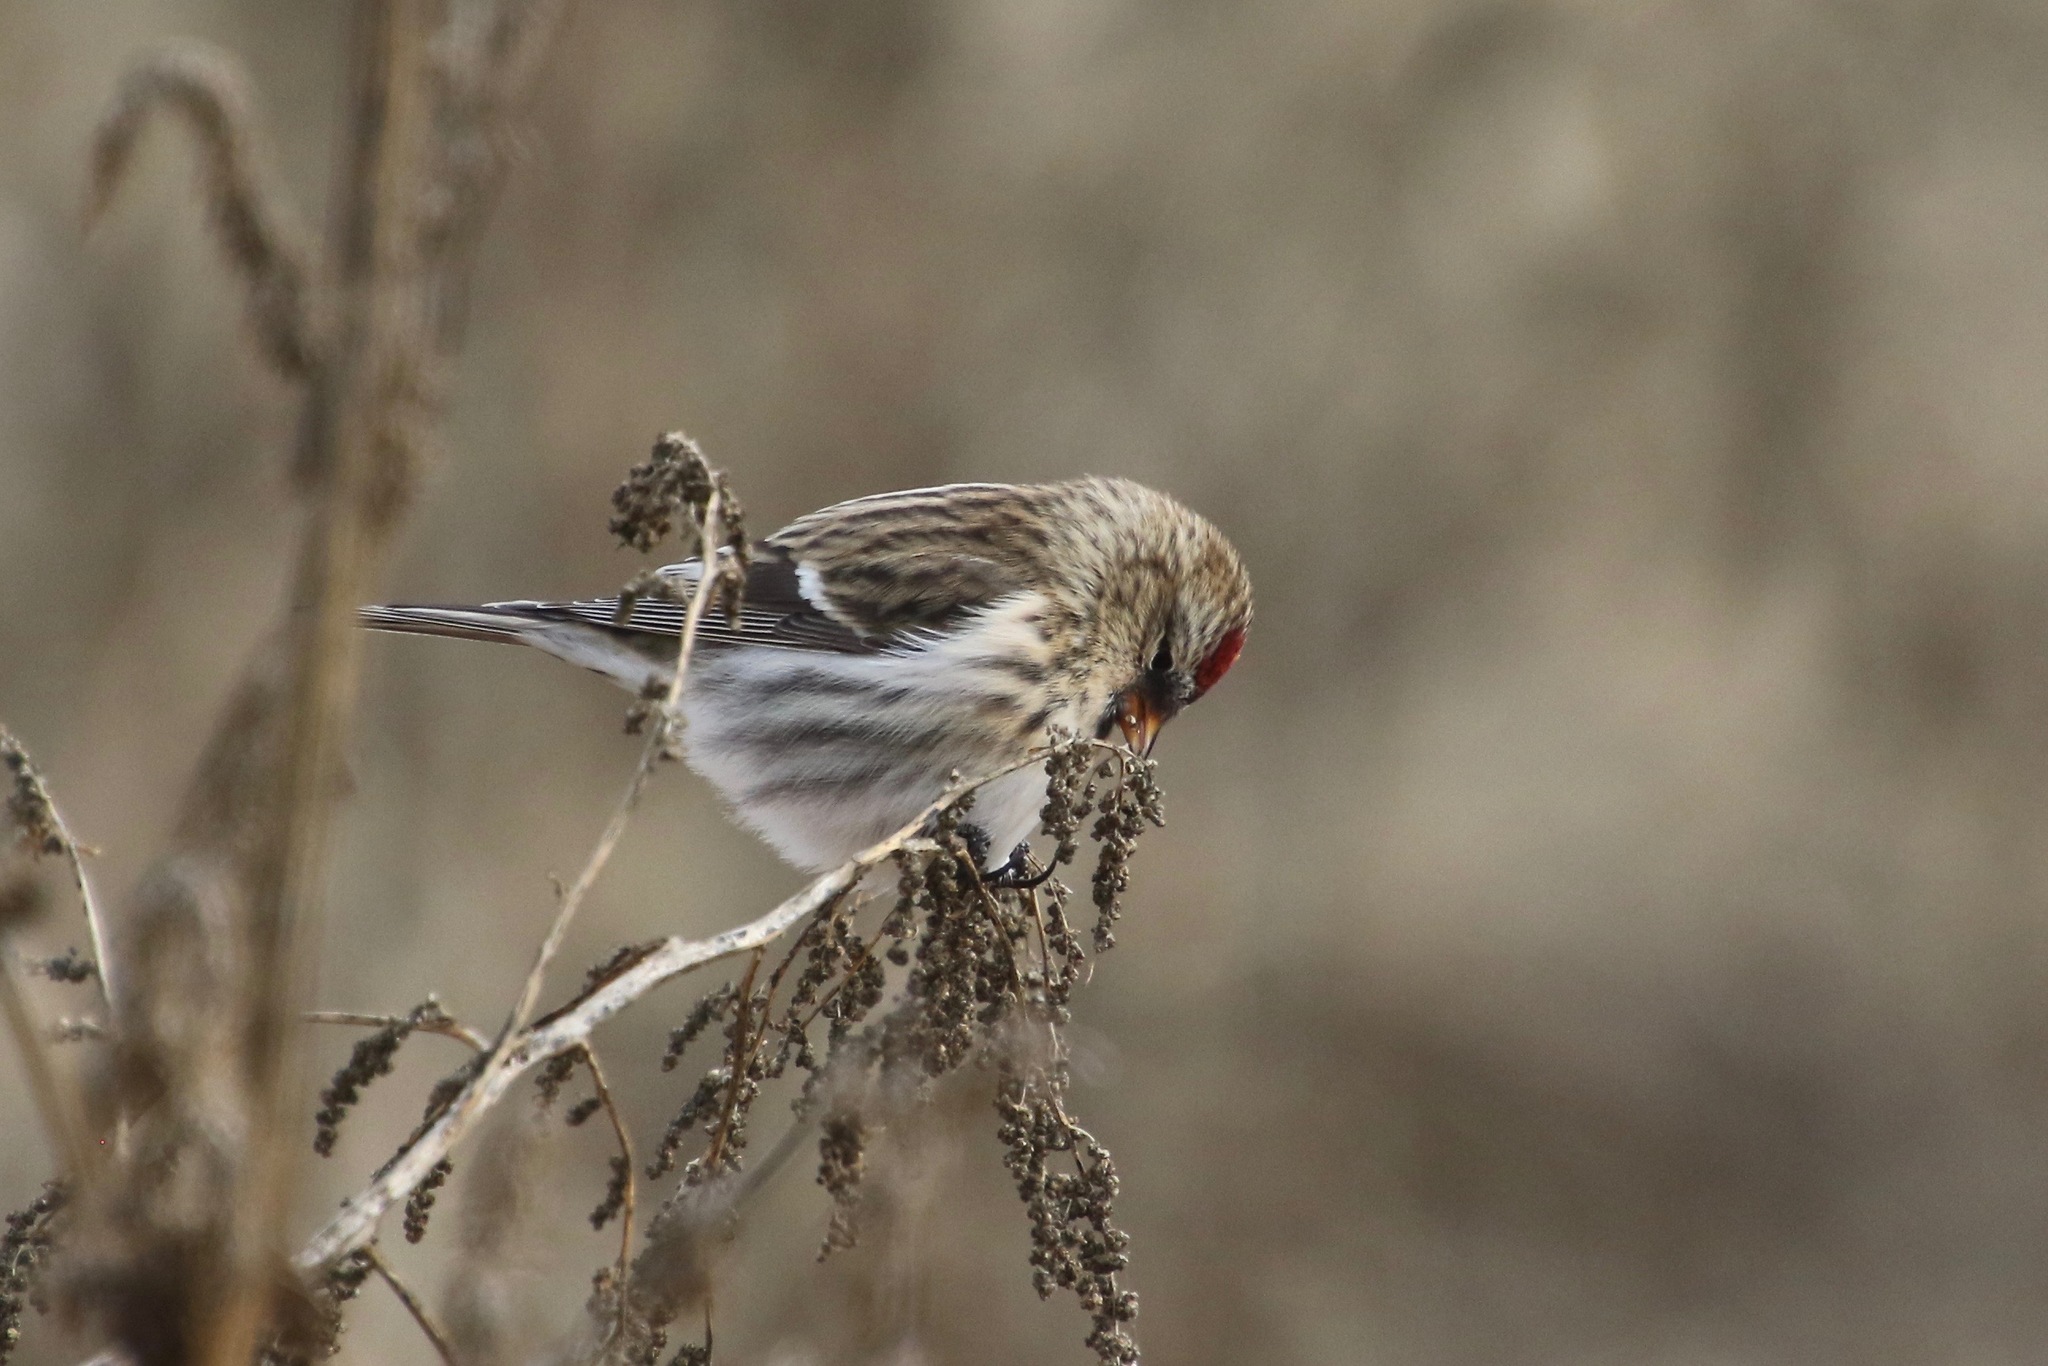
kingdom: Animalia
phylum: Chordata
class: Aves
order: Passeriformes
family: Fringillidae
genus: Acanthis
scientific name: Acanthis flammea
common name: Common redpoll
